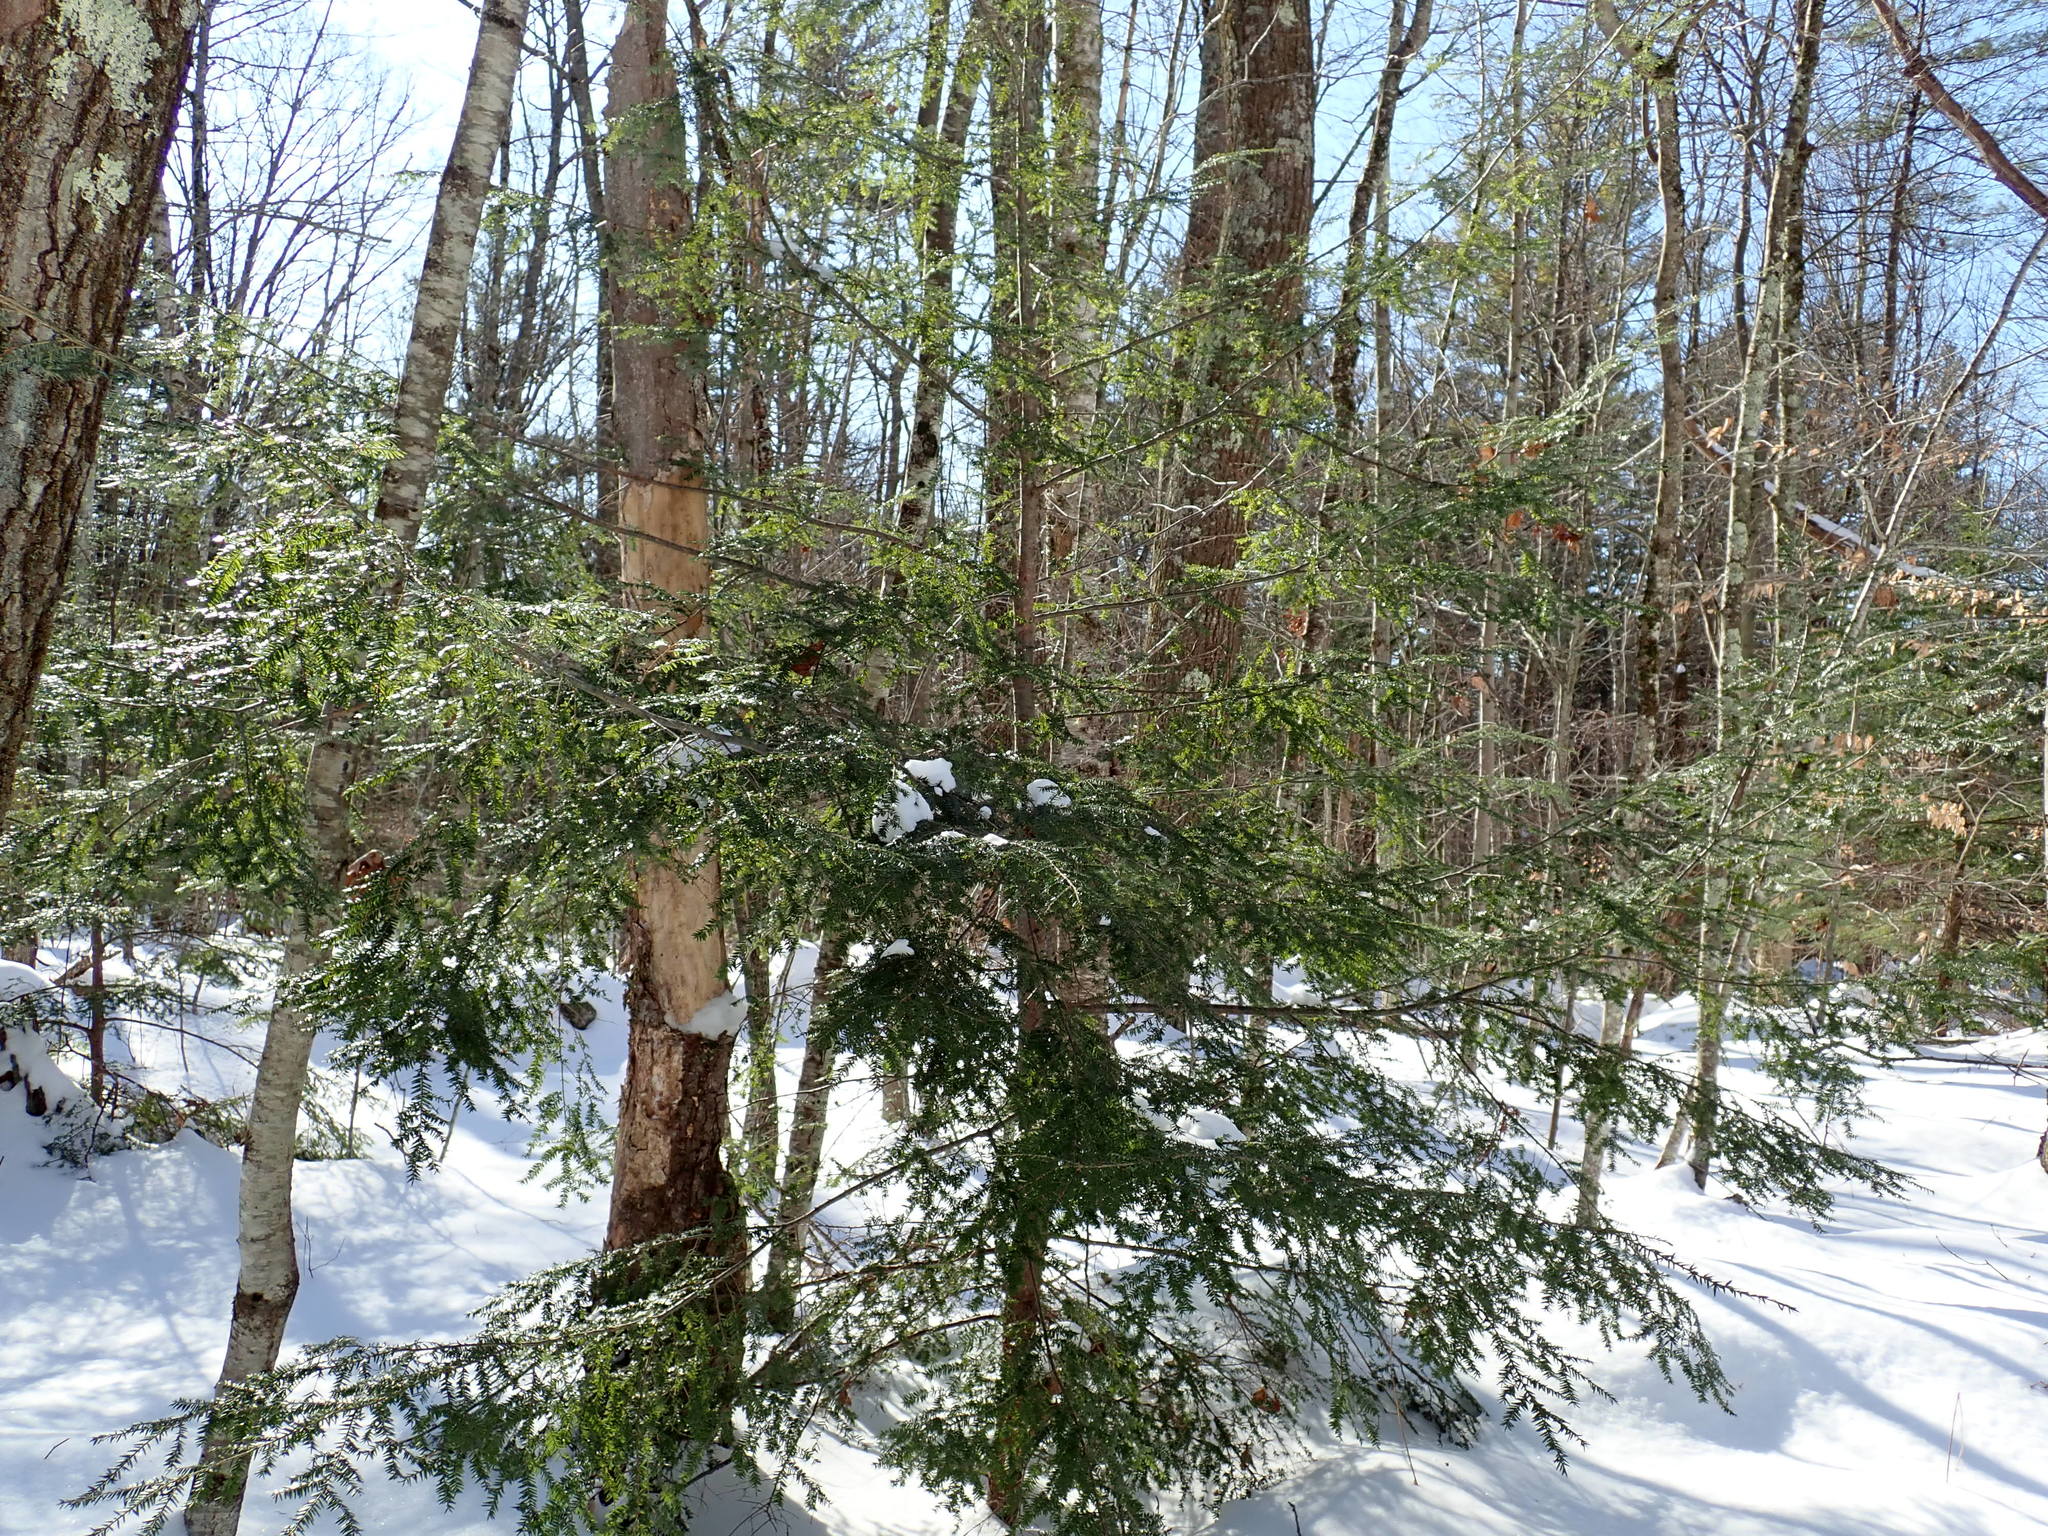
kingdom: Plantae
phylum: Tracheophyta
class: Pinopsida
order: Pinales
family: Pinaceae
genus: Tsuga
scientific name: Tsuga canadensis
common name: Eastern hemlock
